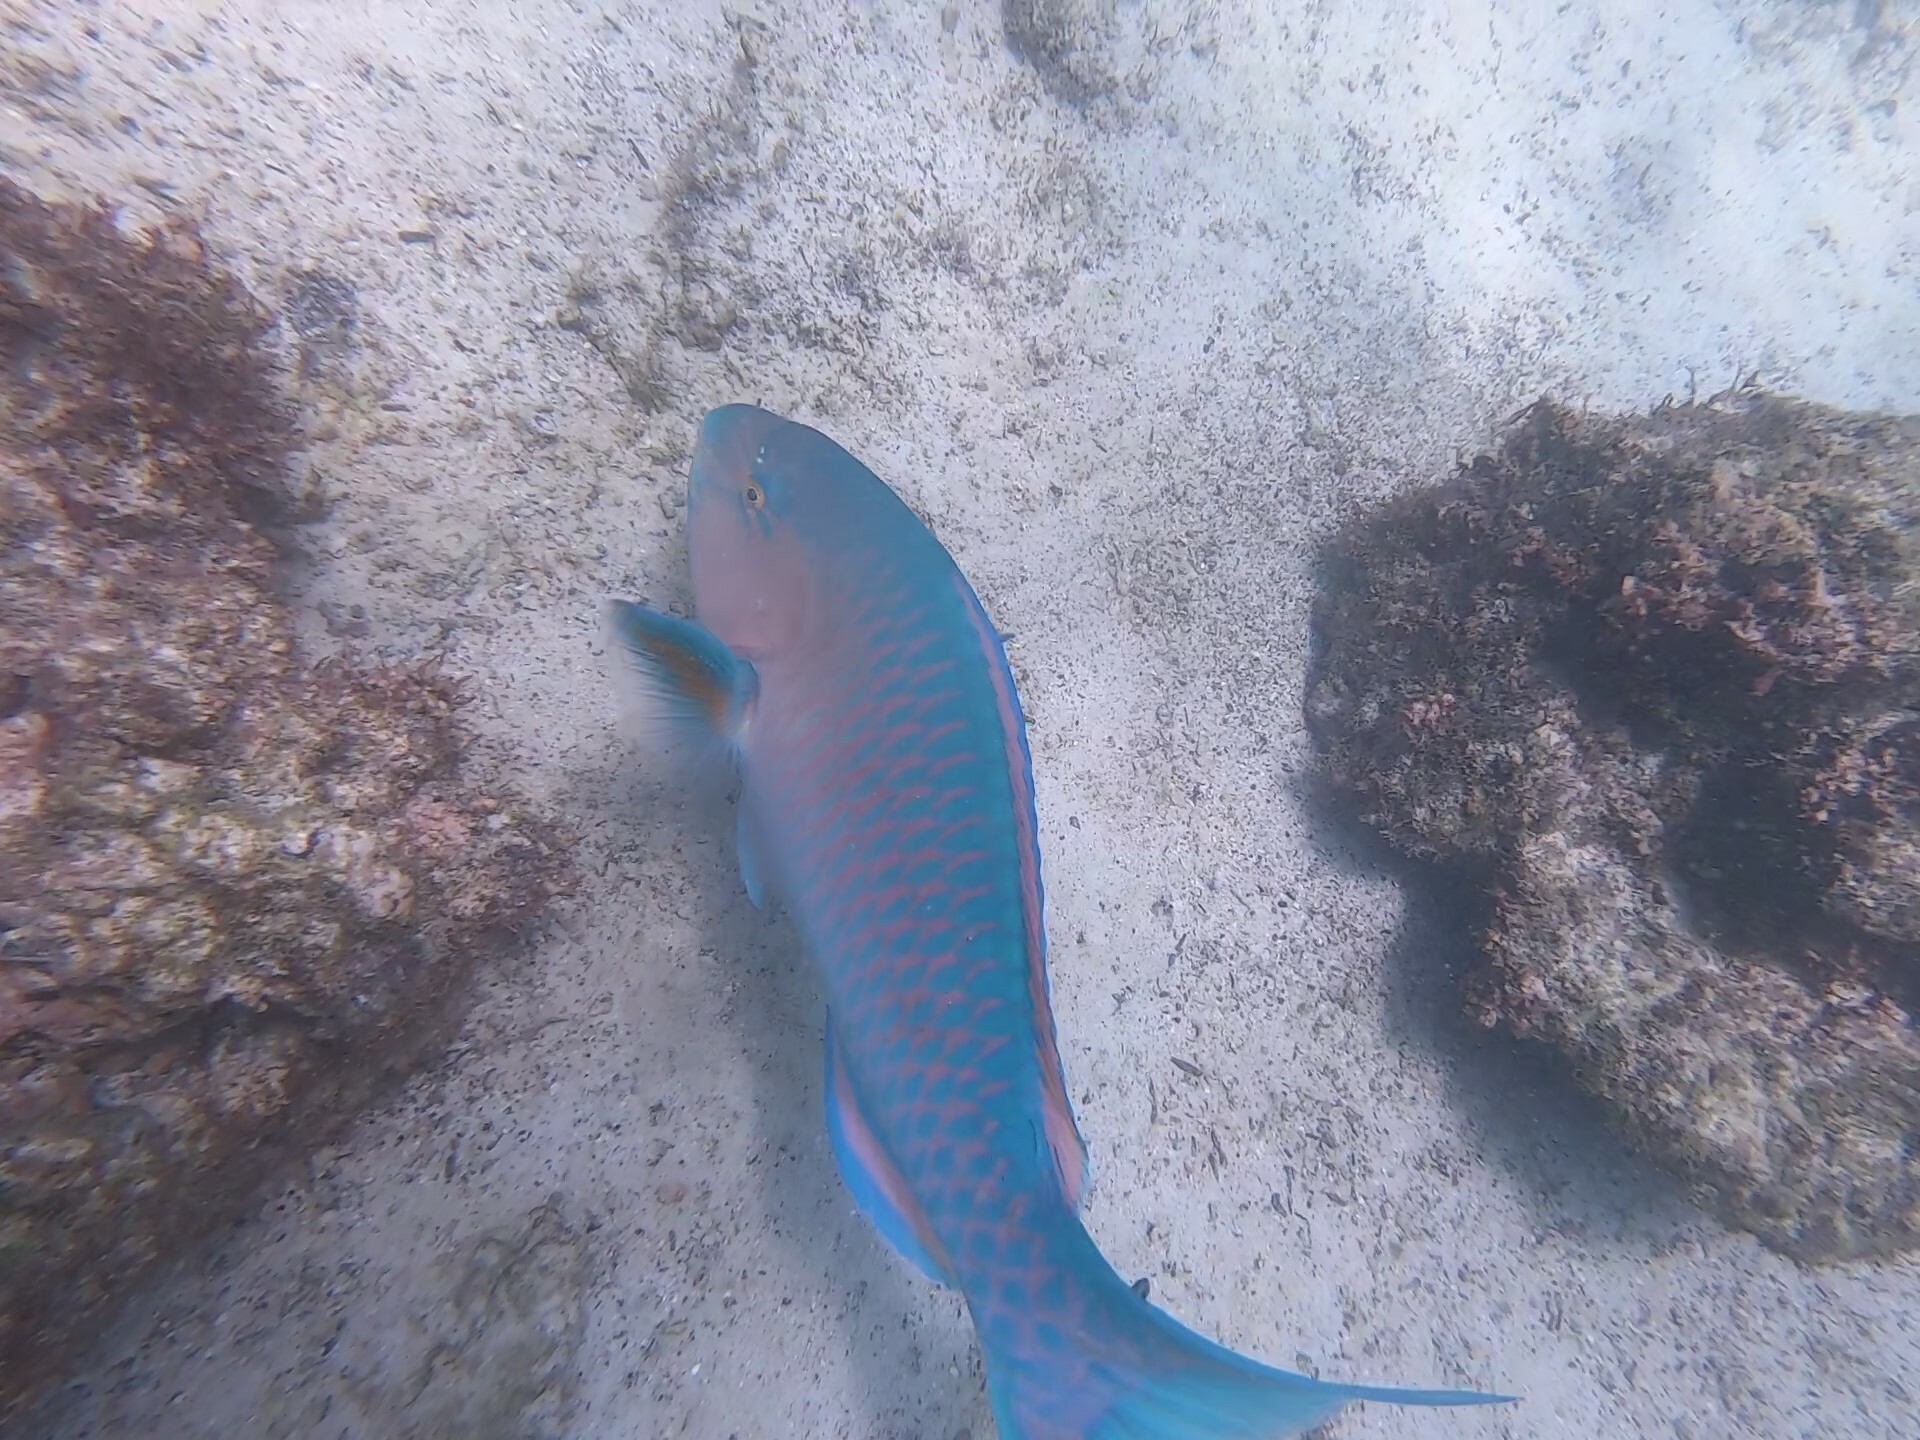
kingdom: Animalia
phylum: Chordata
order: Perciformes
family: Scaridae
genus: Scarus
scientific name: Scarus ghobban
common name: Blue-barred parrotfish
